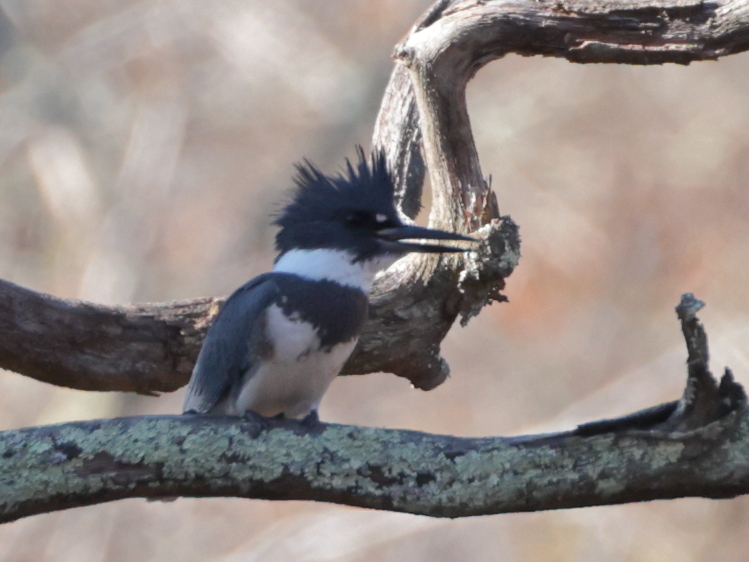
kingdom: Animalia
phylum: Chordata
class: Aves
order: Coraciiformes
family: Alcedinidae
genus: Megaceryle
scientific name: Megaceryle alcyon
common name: Belted kingfisher
